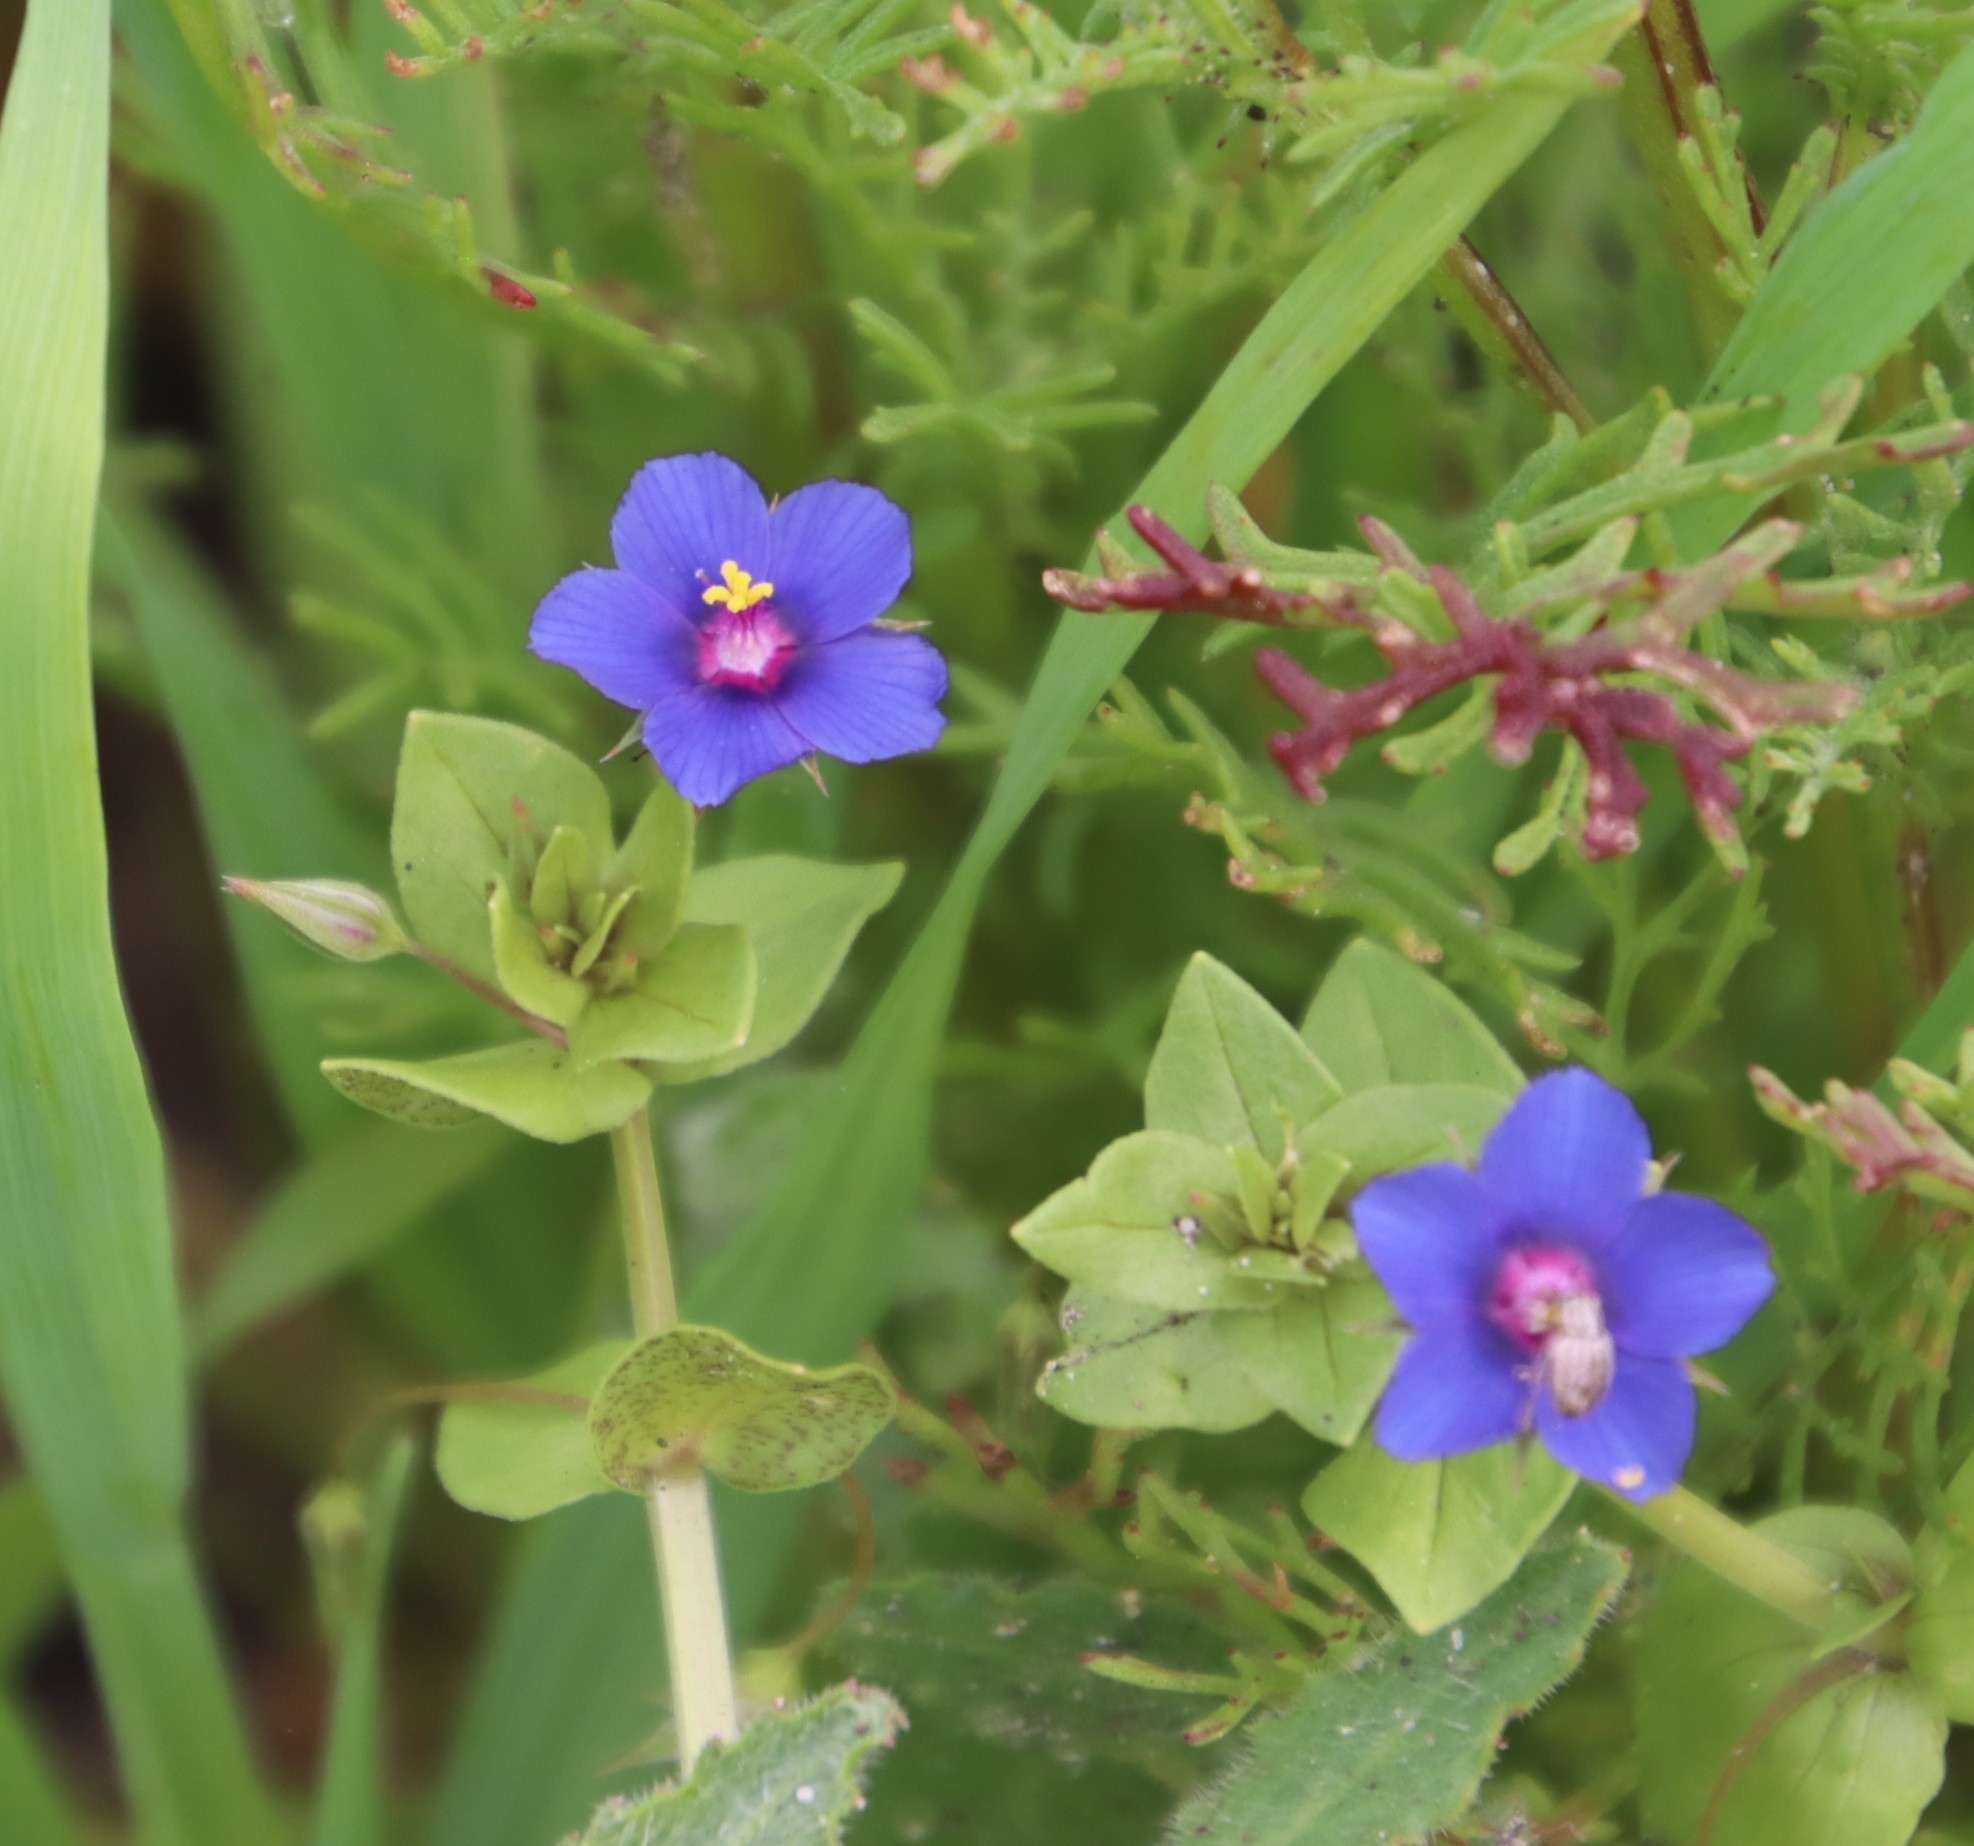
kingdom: Plantae
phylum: Tracheophyta
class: Magnoliopsida
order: Ericales
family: Primulaceae
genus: Lysimachia
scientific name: Lysimachia loeflingii
